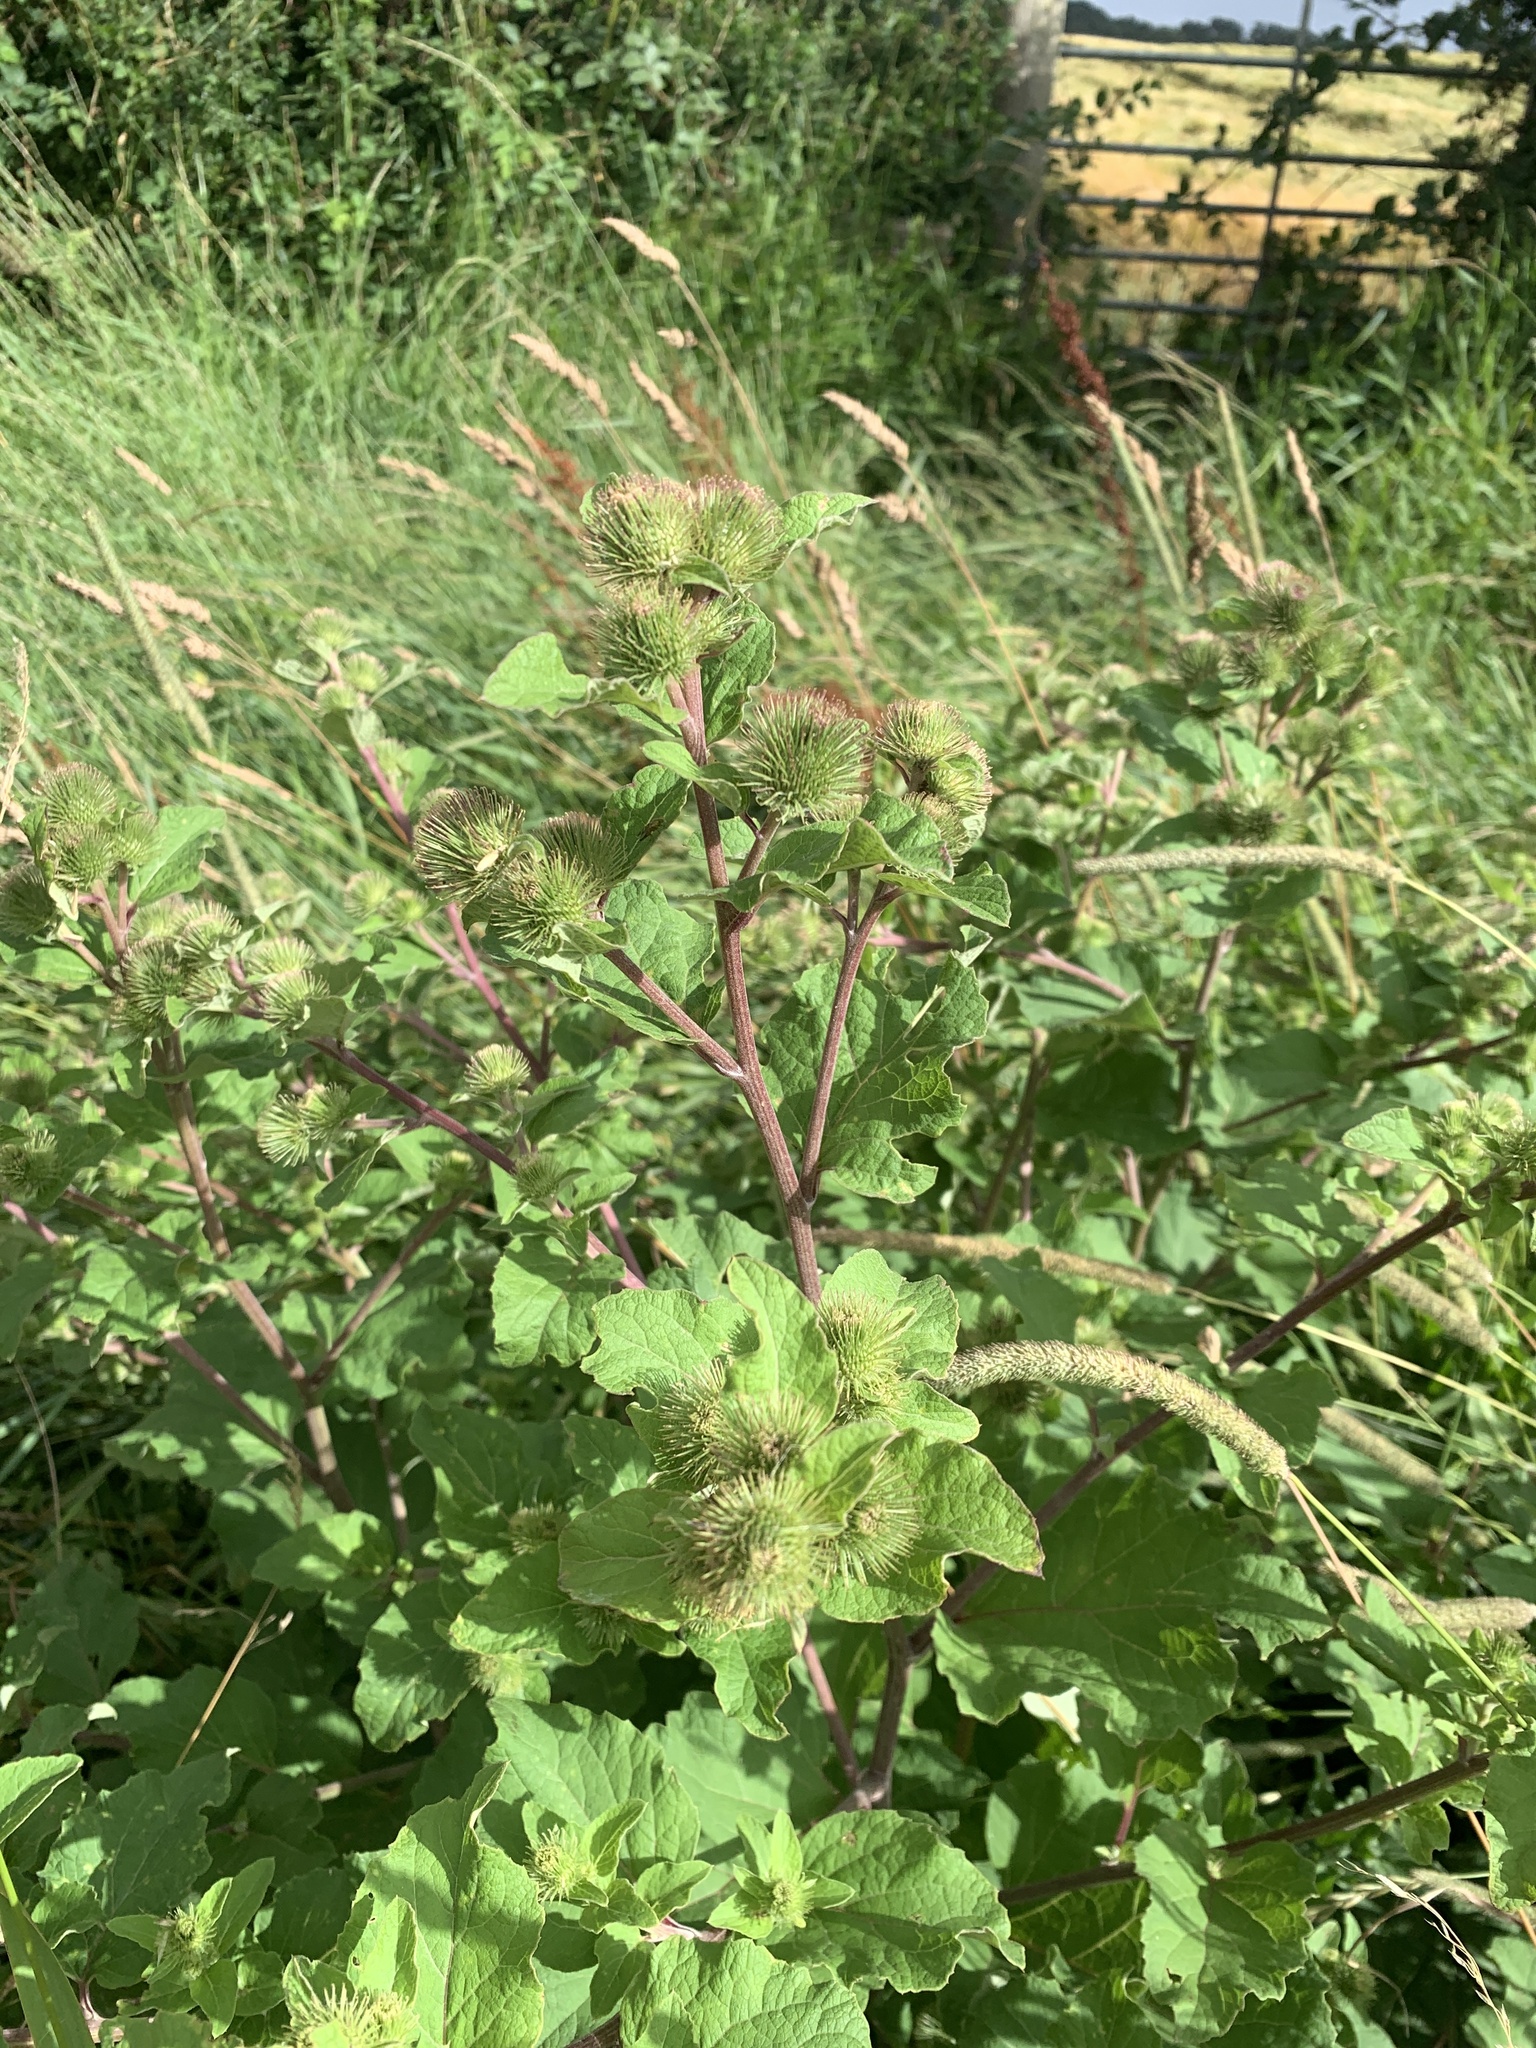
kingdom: Plantae
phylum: Tracheophyta
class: Magnoliopsida
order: Asterales
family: Asteraceae
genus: Arctium
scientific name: Arctium lappa
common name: Greater burdock
